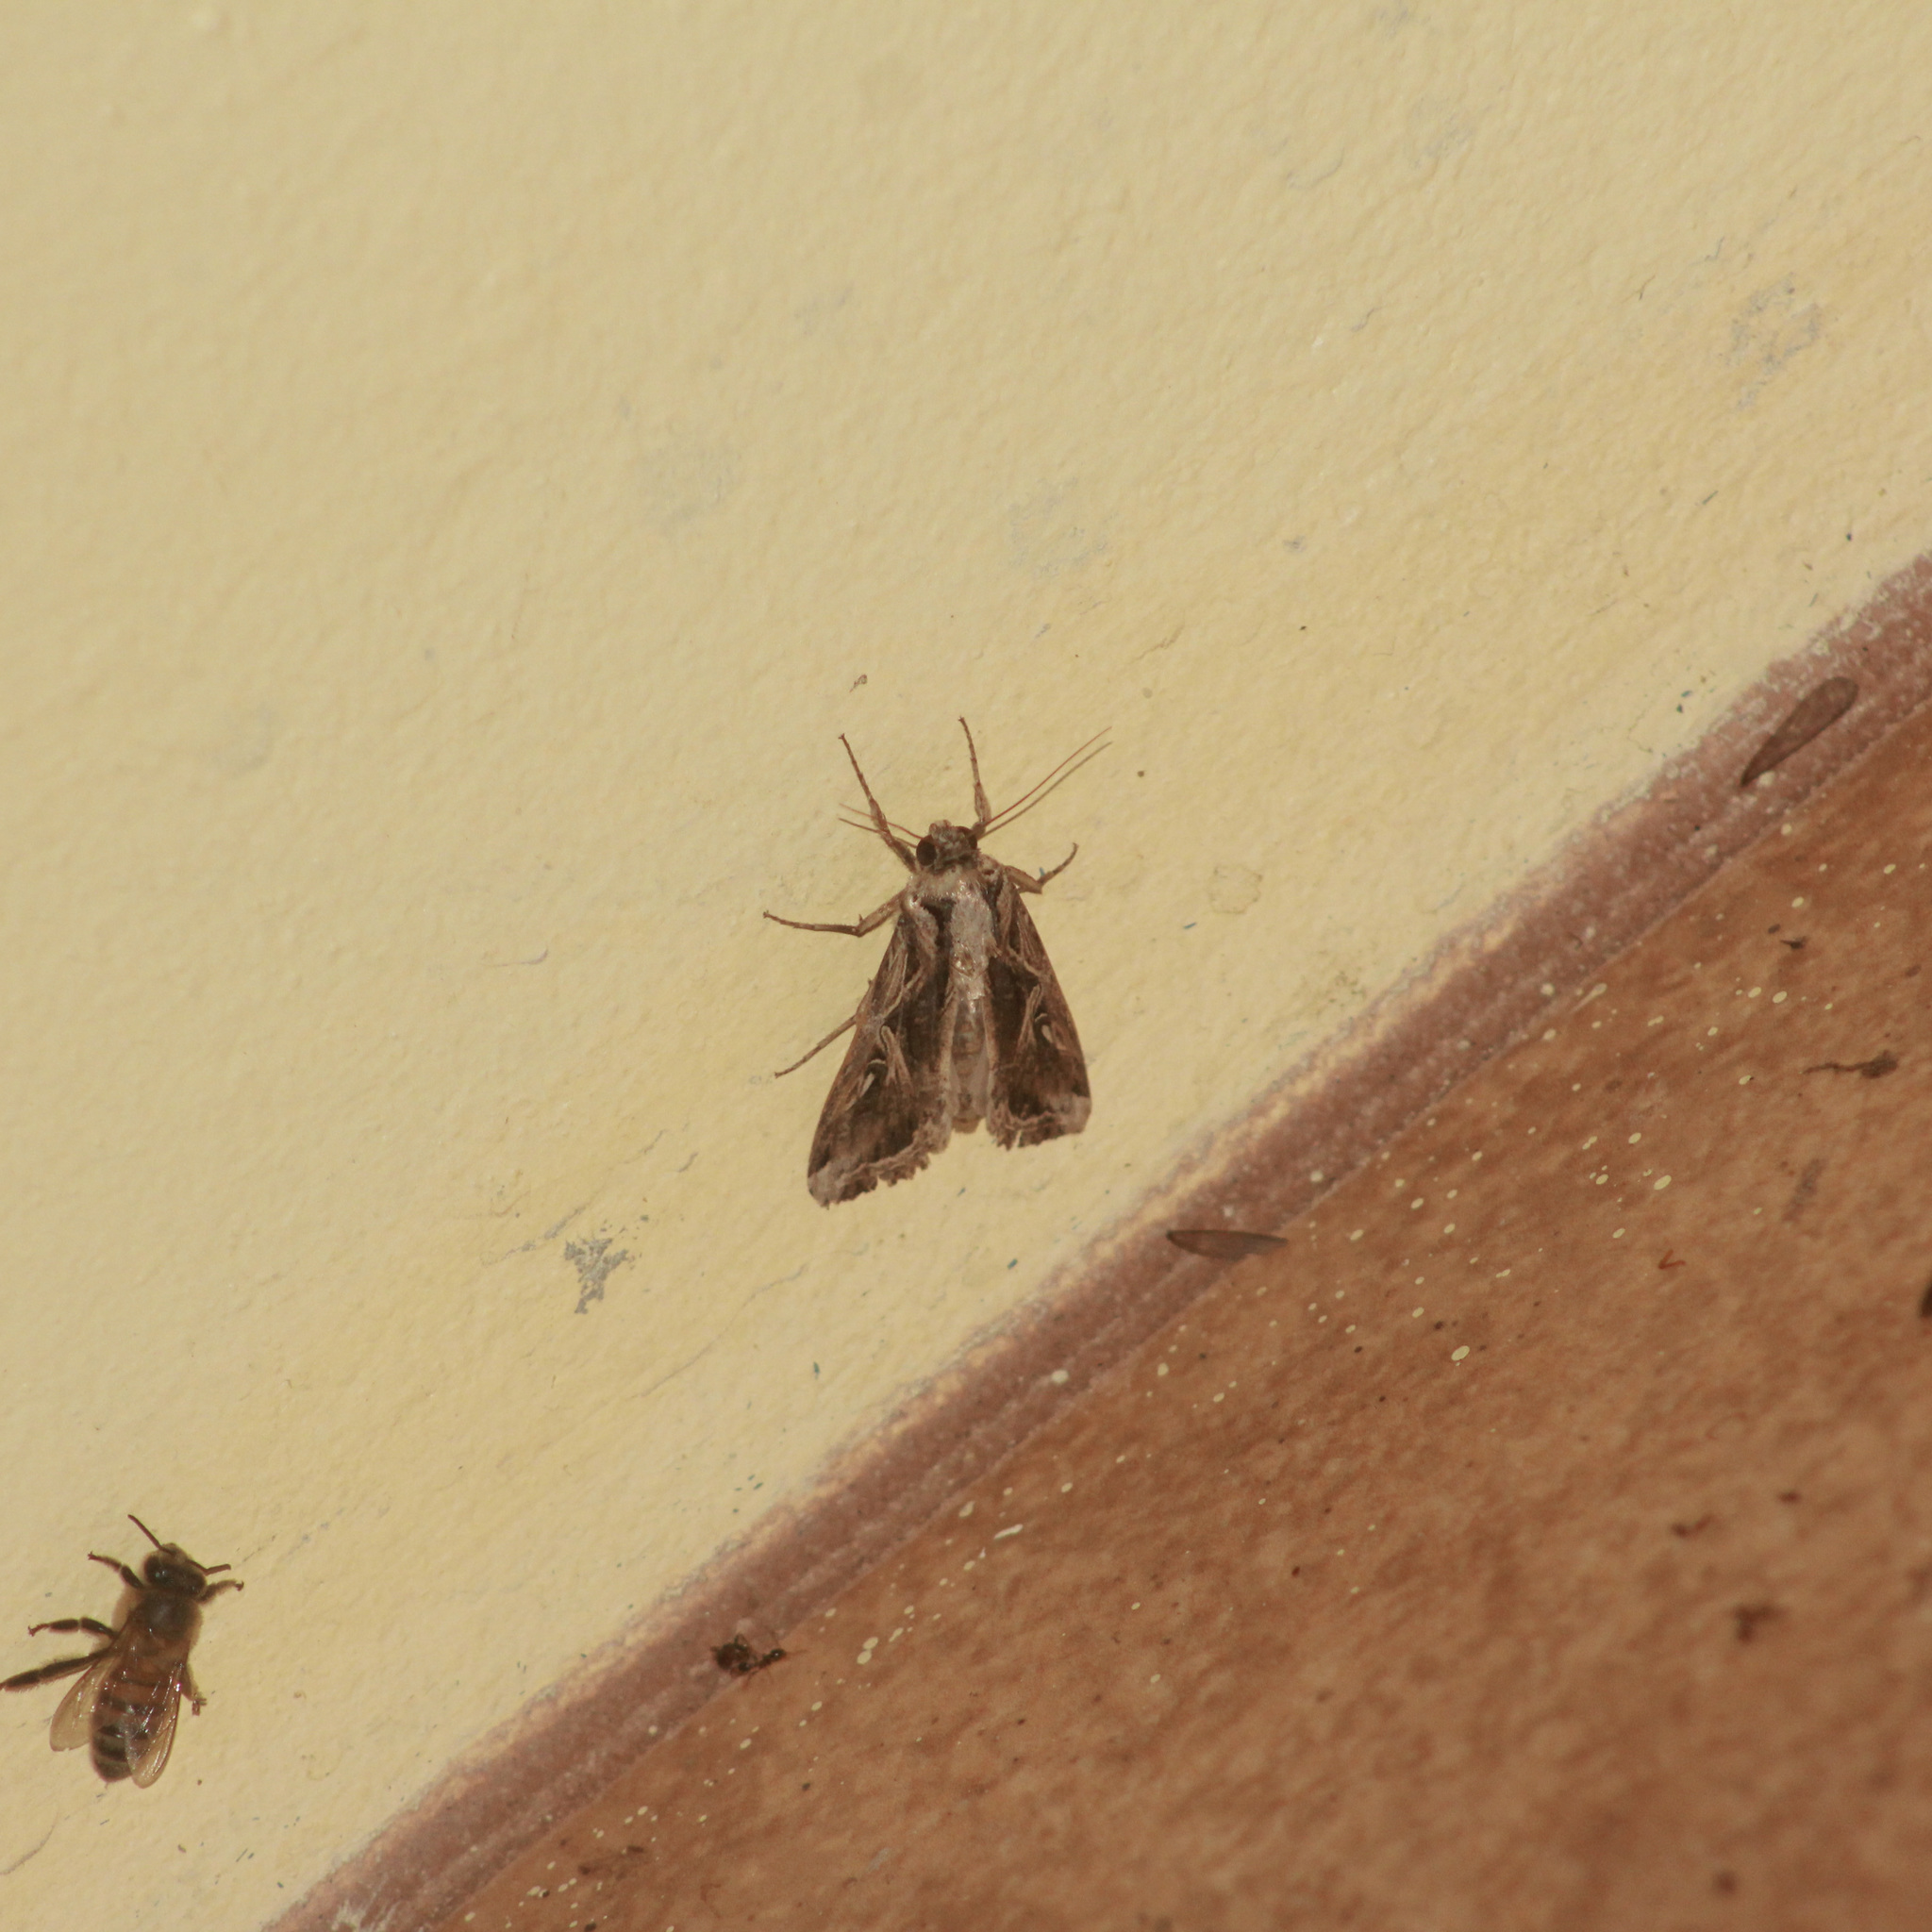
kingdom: Animalia
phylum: Arthropoda
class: Insecta
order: Lepidoptera
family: Noctuidae
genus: Spodoptera
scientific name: Spodoptera dolichos
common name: Sweetpotato armyworm
